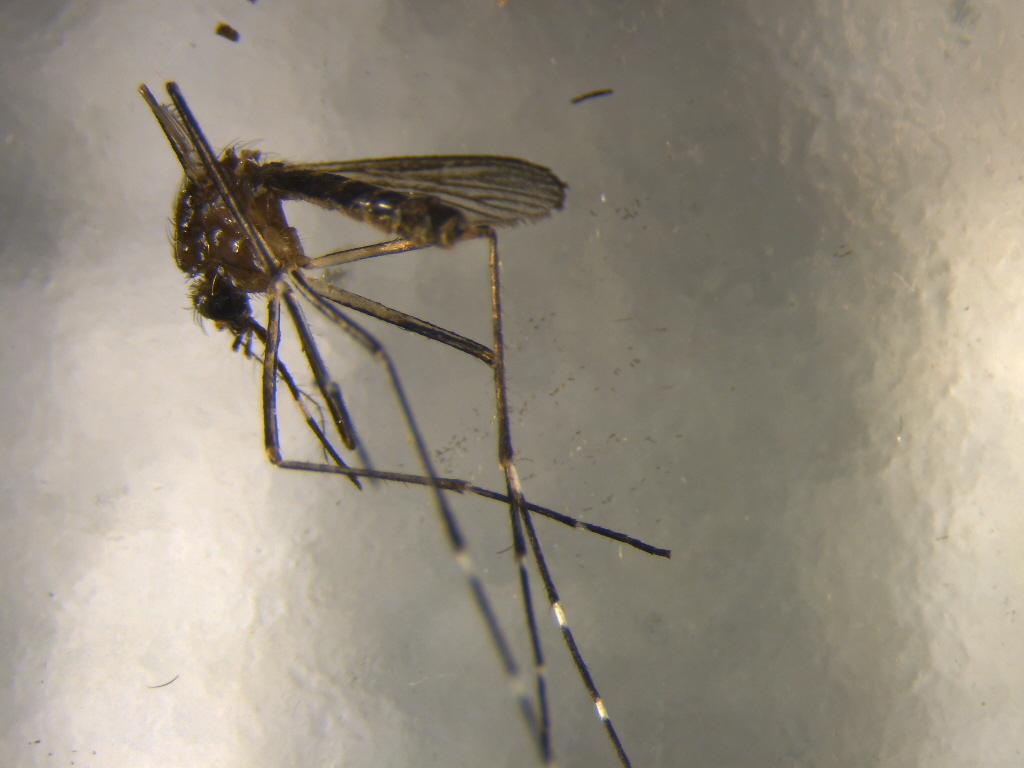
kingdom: Animalia
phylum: Arthropoda
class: Insecta
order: Diptera
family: Culicidae
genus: Aedes
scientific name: Aedes notoscriptus
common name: Australian backyard mosquito
